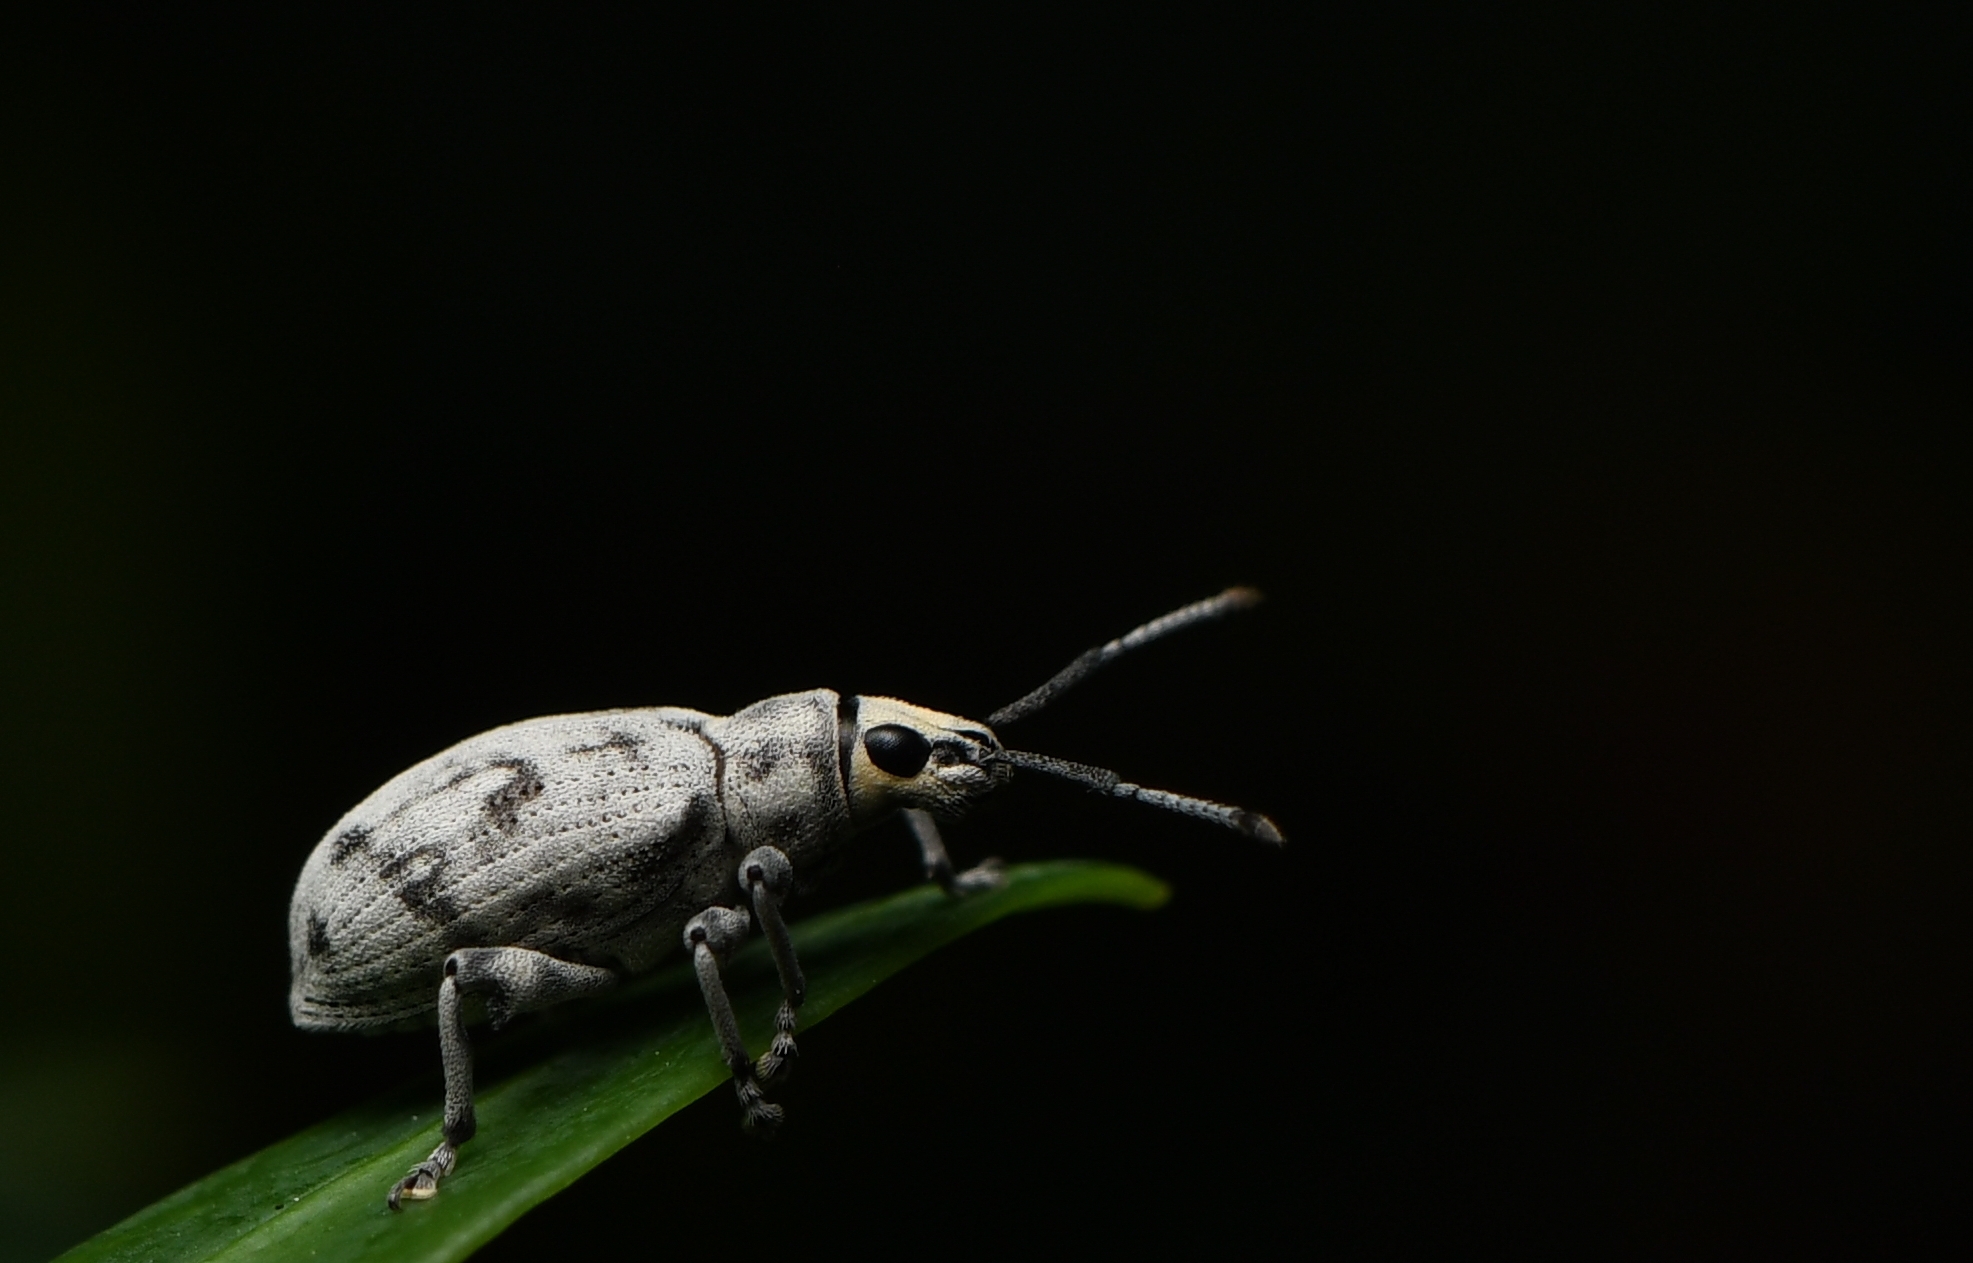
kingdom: Animalia
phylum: Arthropoda
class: Insecta
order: Coleoptera
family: Curculionidae
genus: Myllocerus
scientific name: Myllocerus undecimpustulatus
